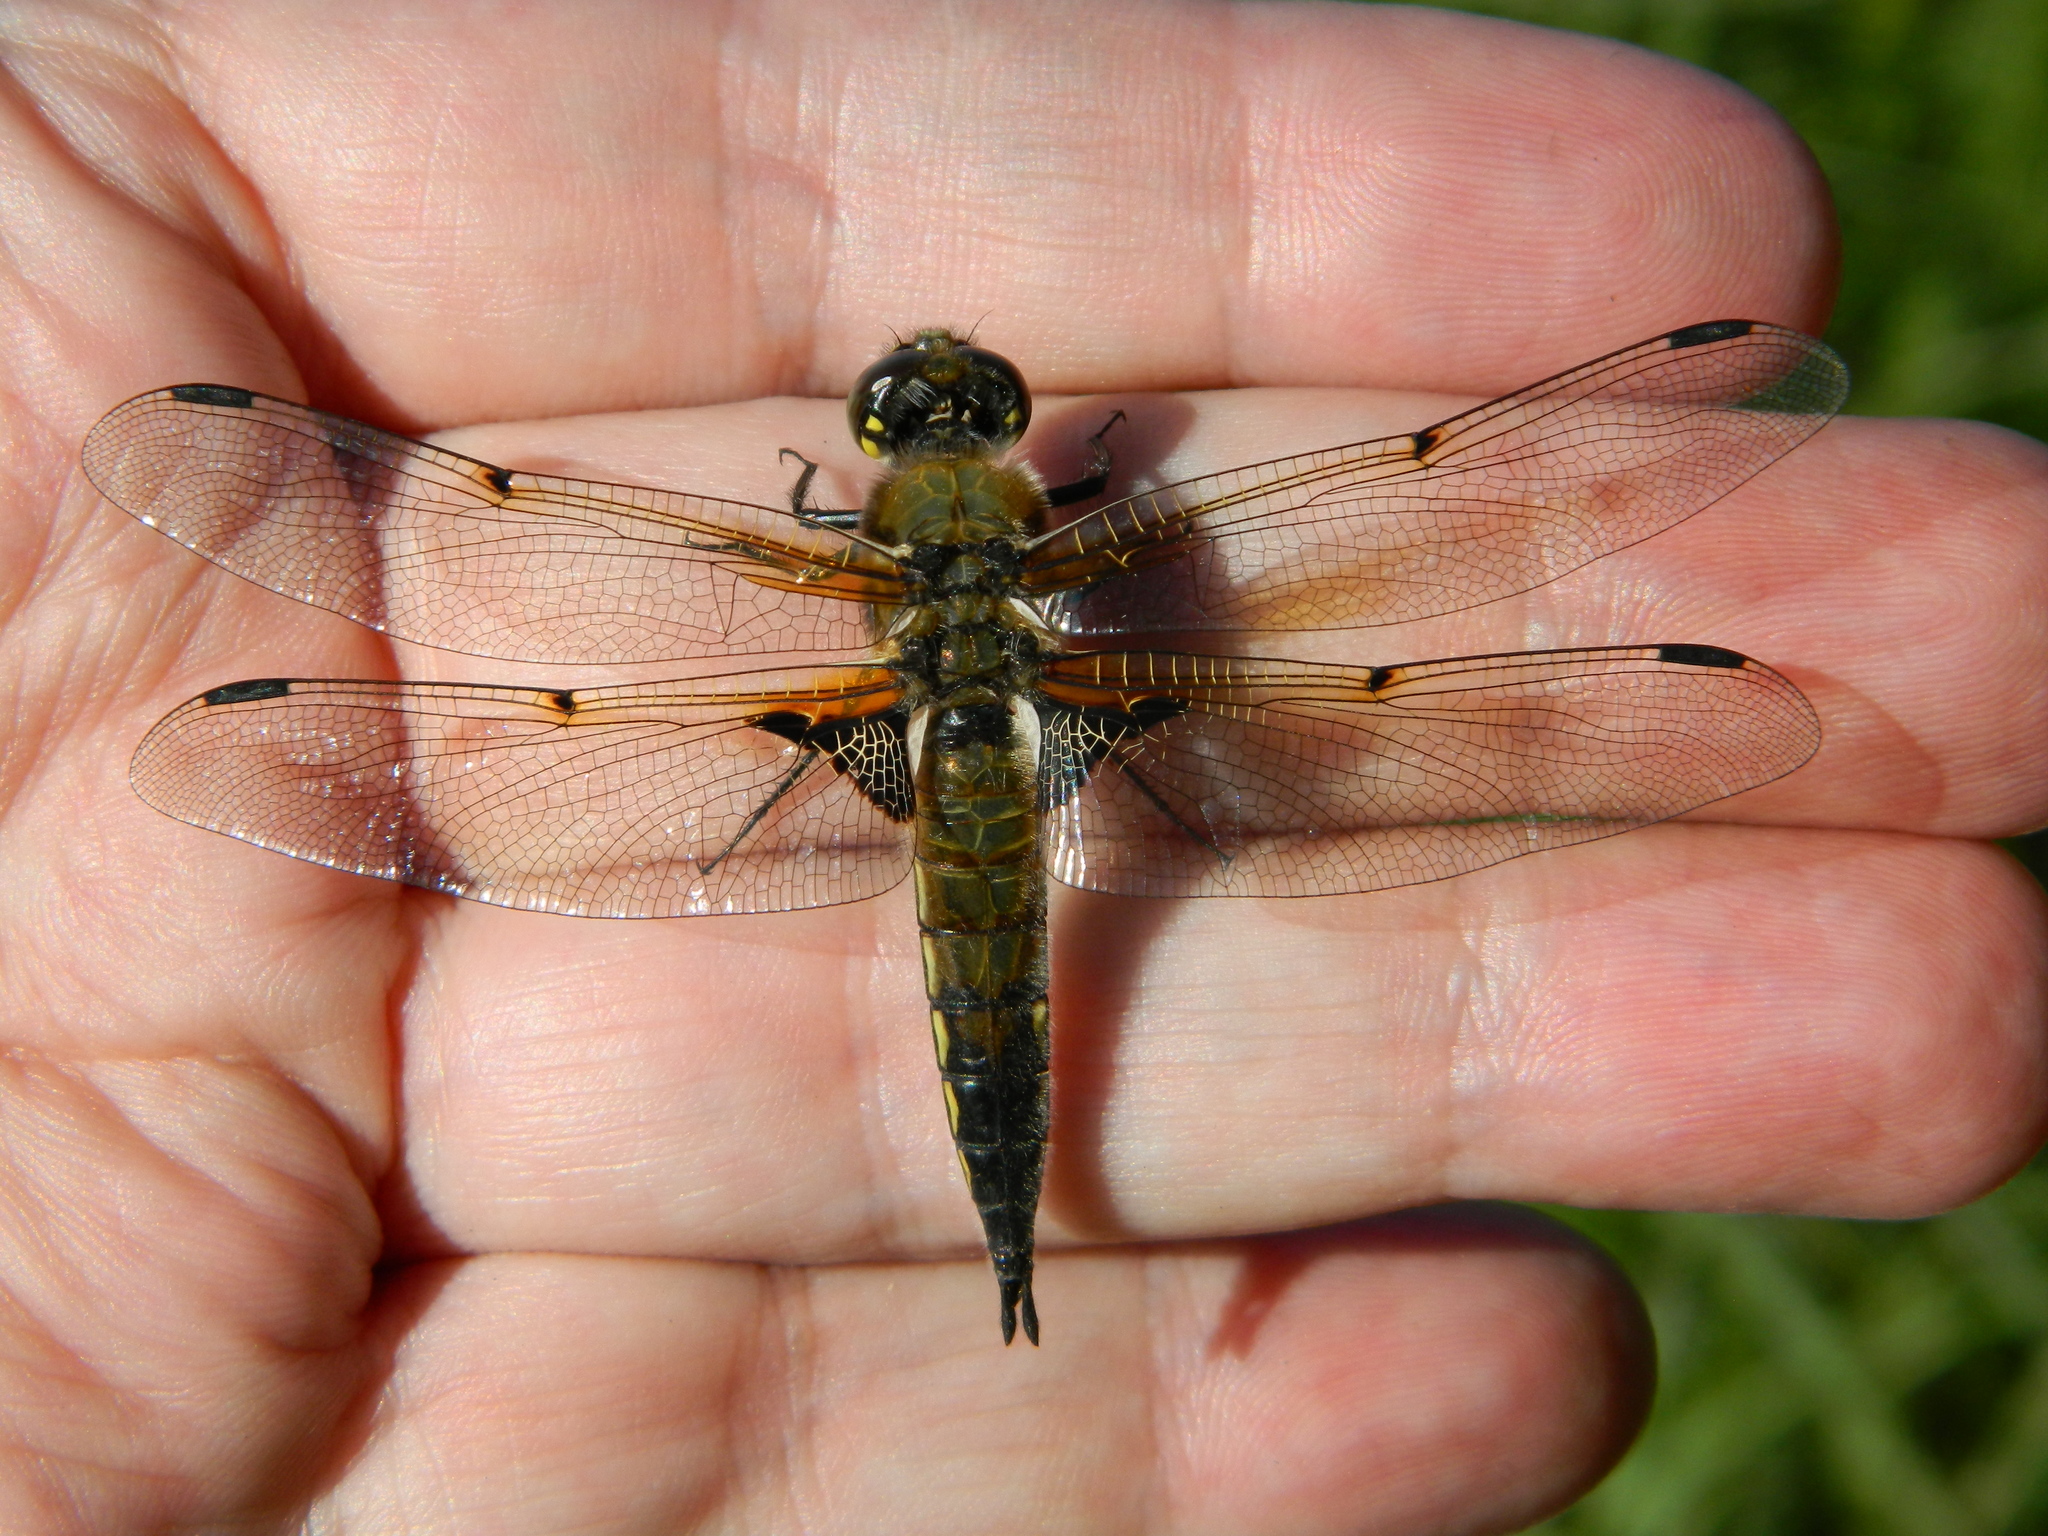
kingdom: Animalia
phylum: Arthropoda
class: Insecta
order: Odonata
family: Libellulidae
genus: Libellula
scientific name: Libellula quadrimaculata
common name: Four-spotted chaser
